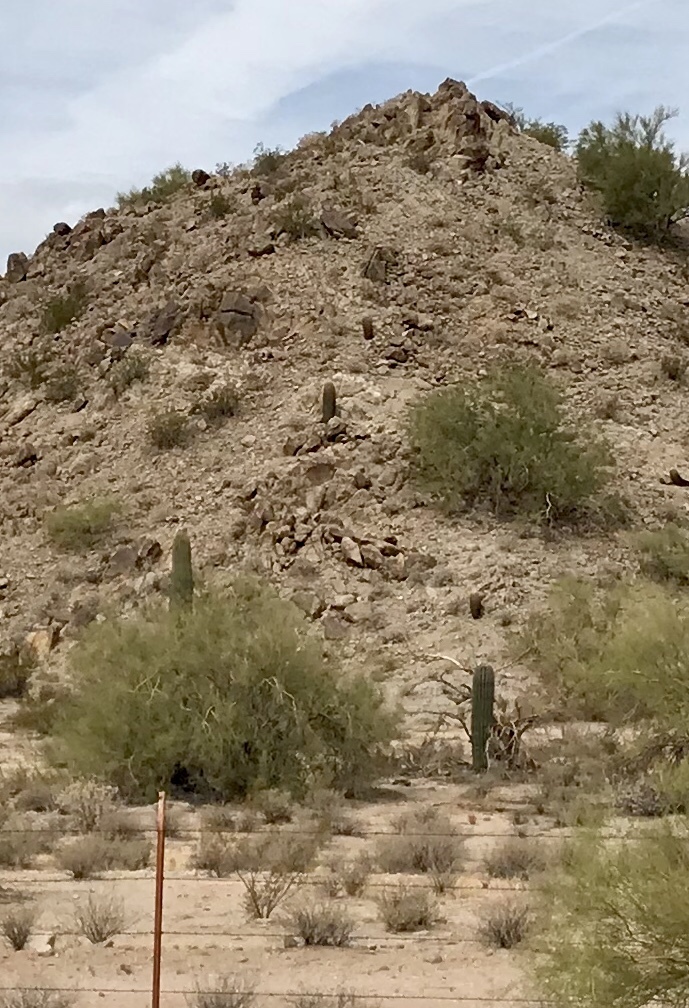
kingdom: Plantae
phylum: Tracheophyta
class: Magnoliopsida
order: Caryophyllales
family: Cactaceae
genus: Carnegiea
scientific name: Carnegiea gigantea
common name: Saguaro
